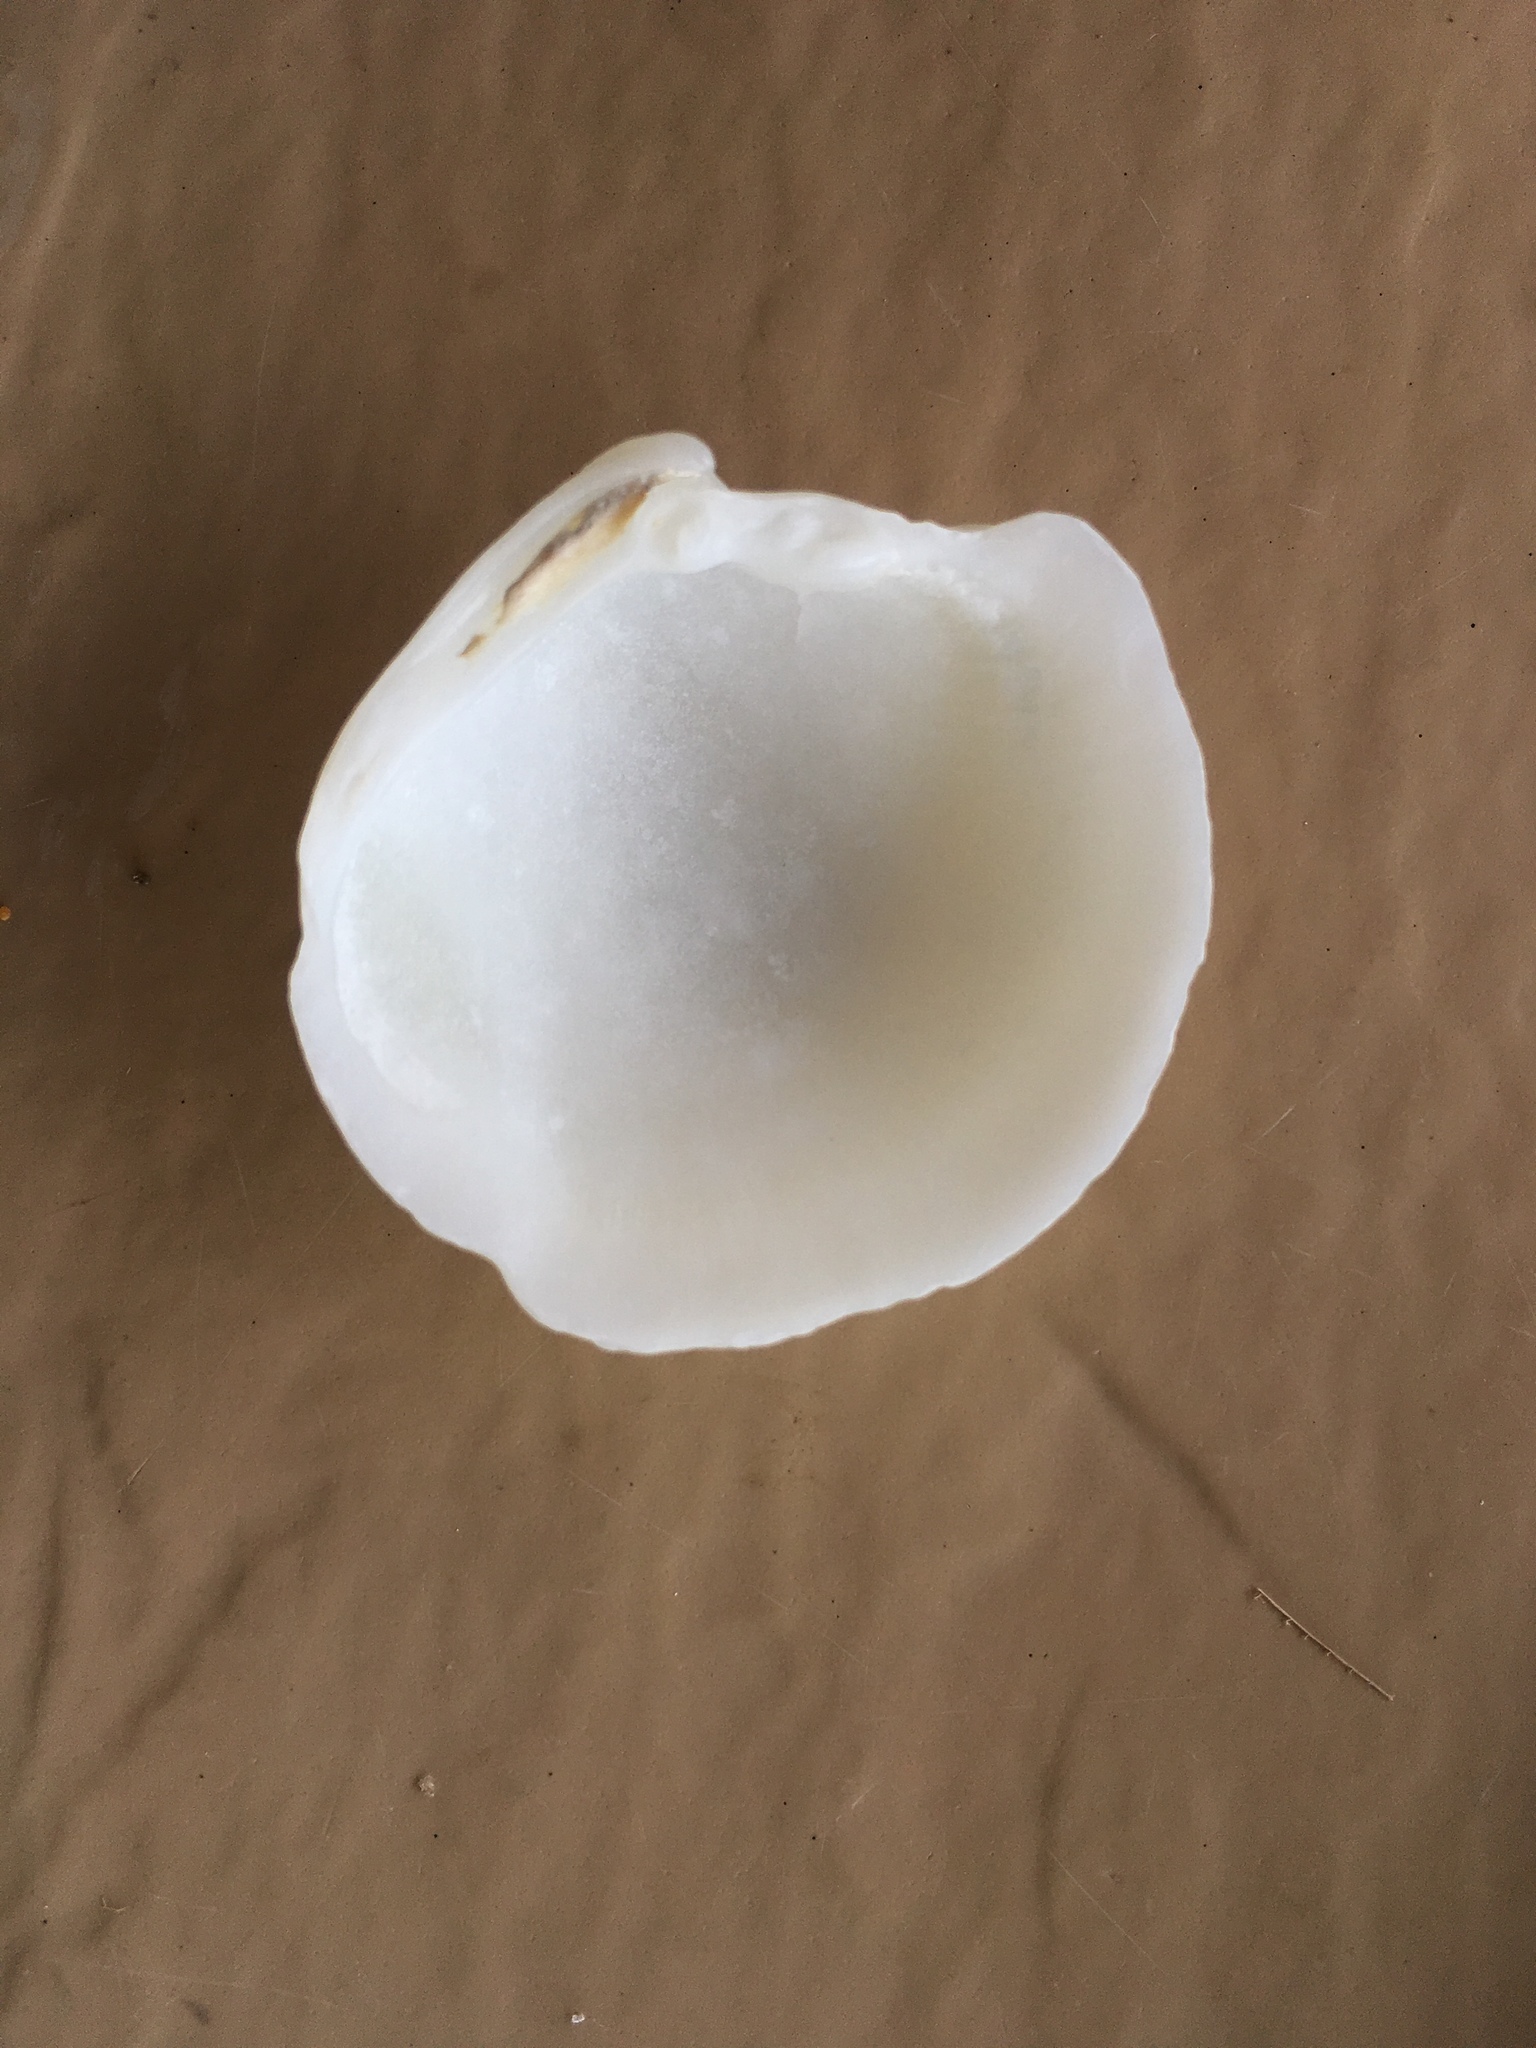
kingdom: Animalia
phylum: Mollusca
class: Bivalvia
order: Lucinida
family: Lucinidae
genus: Lucina
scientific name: Lucina pensylvanica
